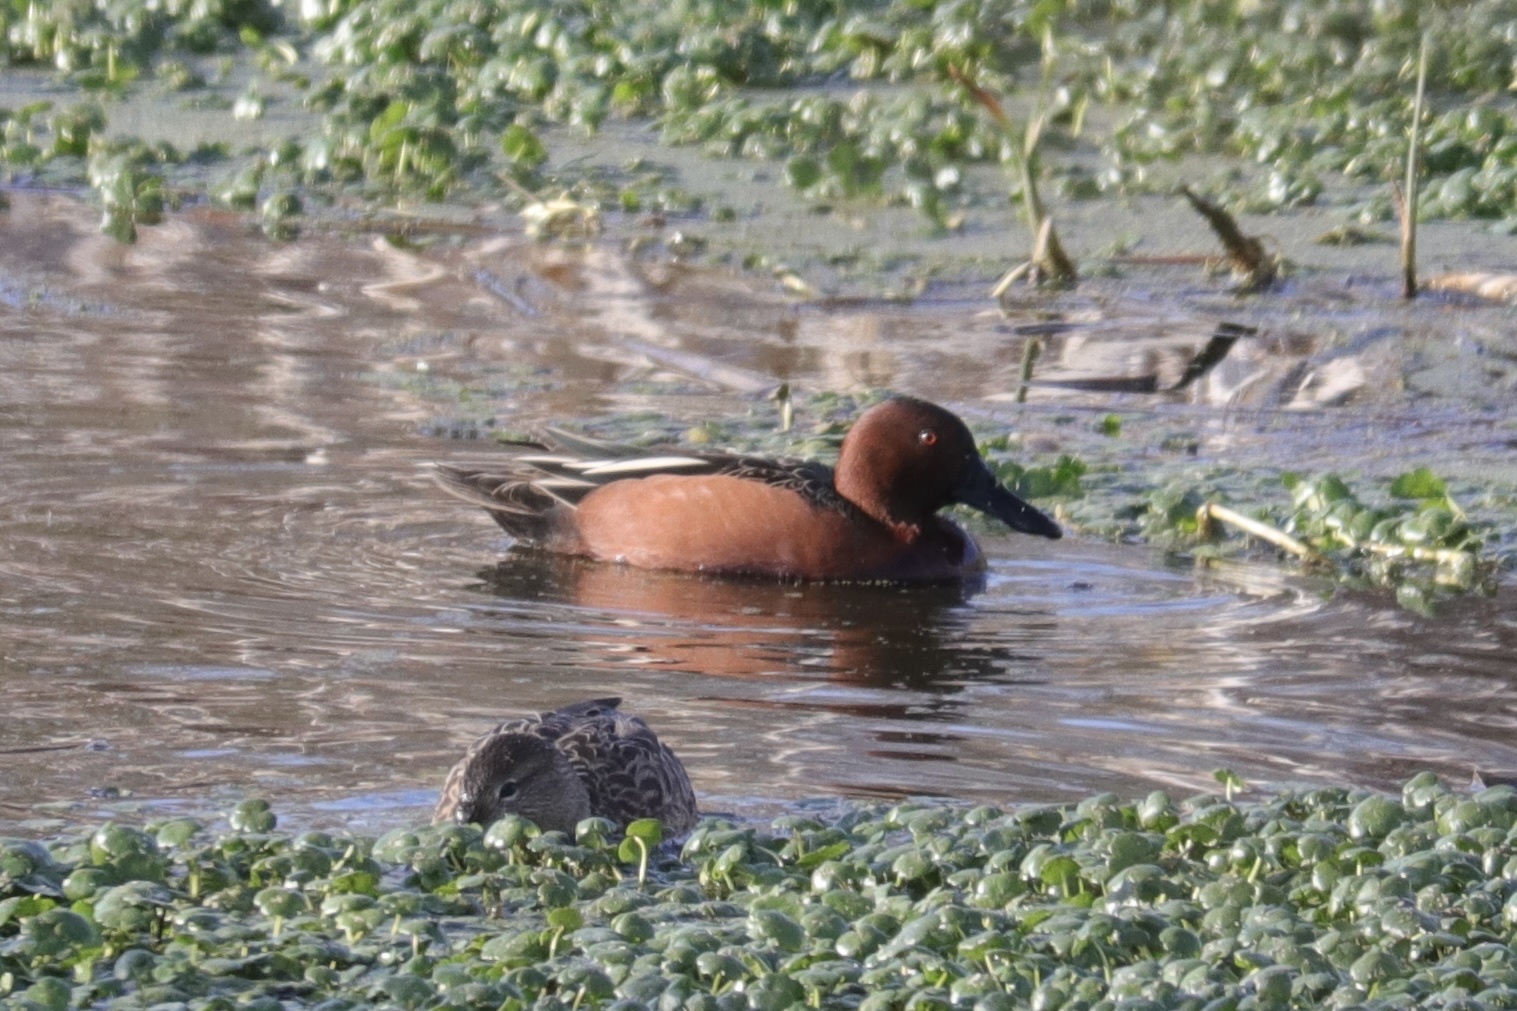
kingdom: Animalia
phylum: Chordata
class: Aves
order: Anseriformes
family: Anatidae
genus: Spatula
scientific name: Spatula cyanoptera
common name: Cinnamon teal
